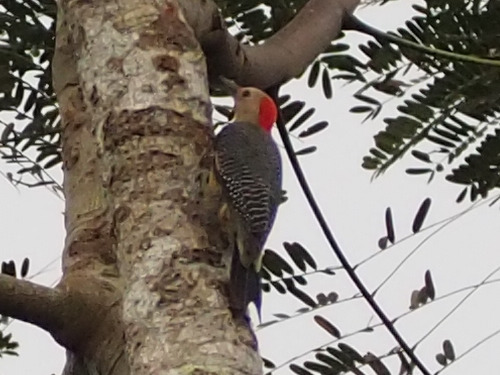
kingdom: Animalia
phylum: Chordata
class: Aves
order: Piciformes
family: Picidae
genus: Melanerpes
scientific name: Melanerpes aurifrons
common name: Golden-fronted woodpecker
